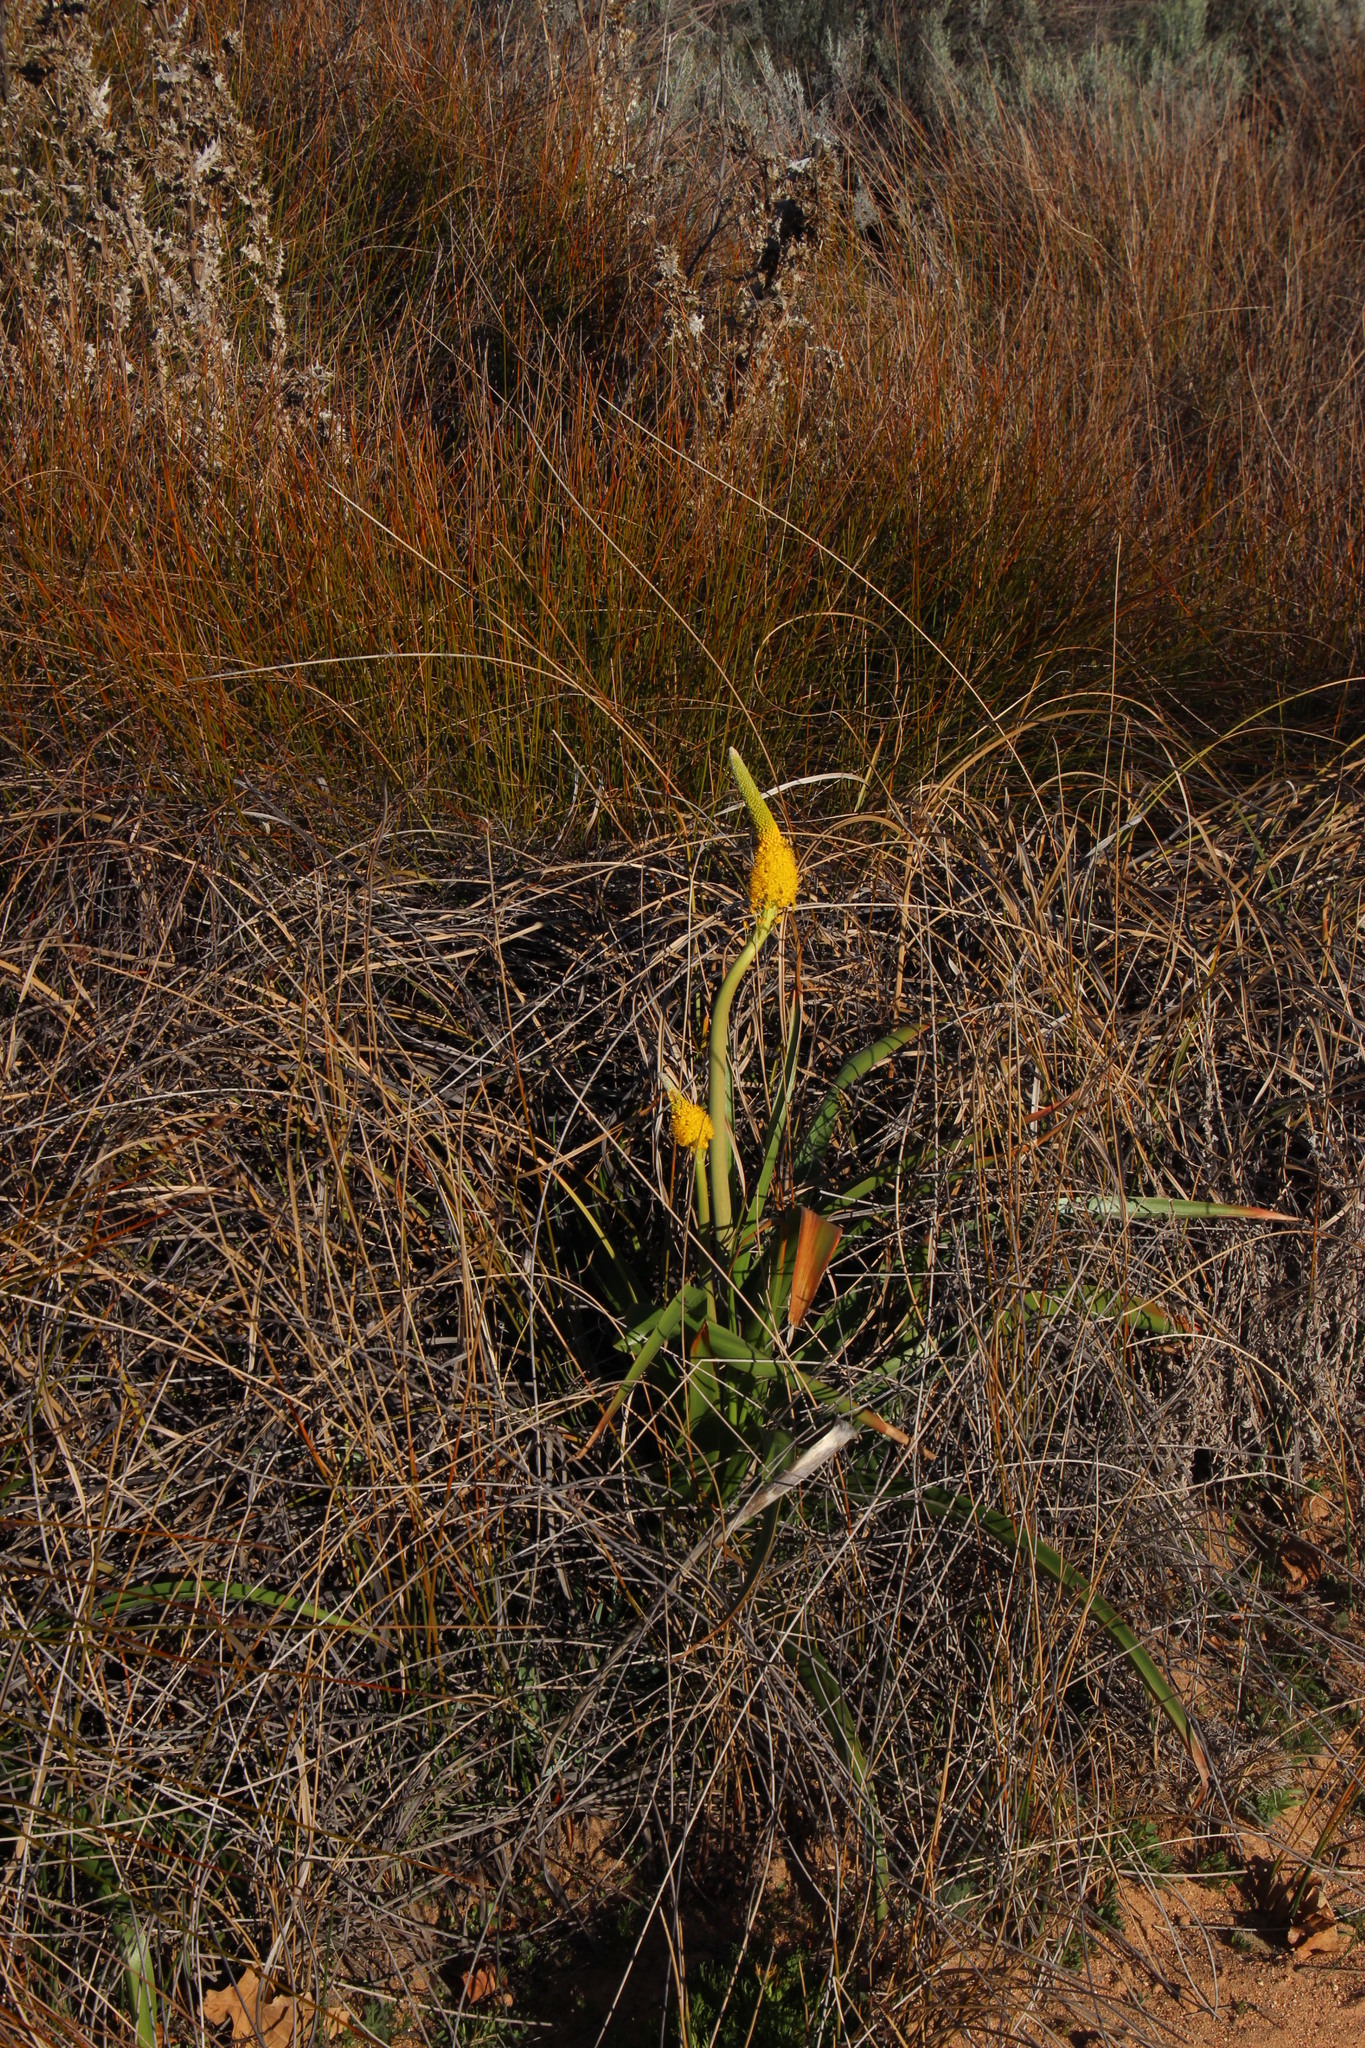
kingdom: Plantae
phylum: Tracheophyta
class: Liliopsida
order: Asparagales
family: Asphodelaceae
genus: Bulbinella
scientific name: Bulbinella latifolia
